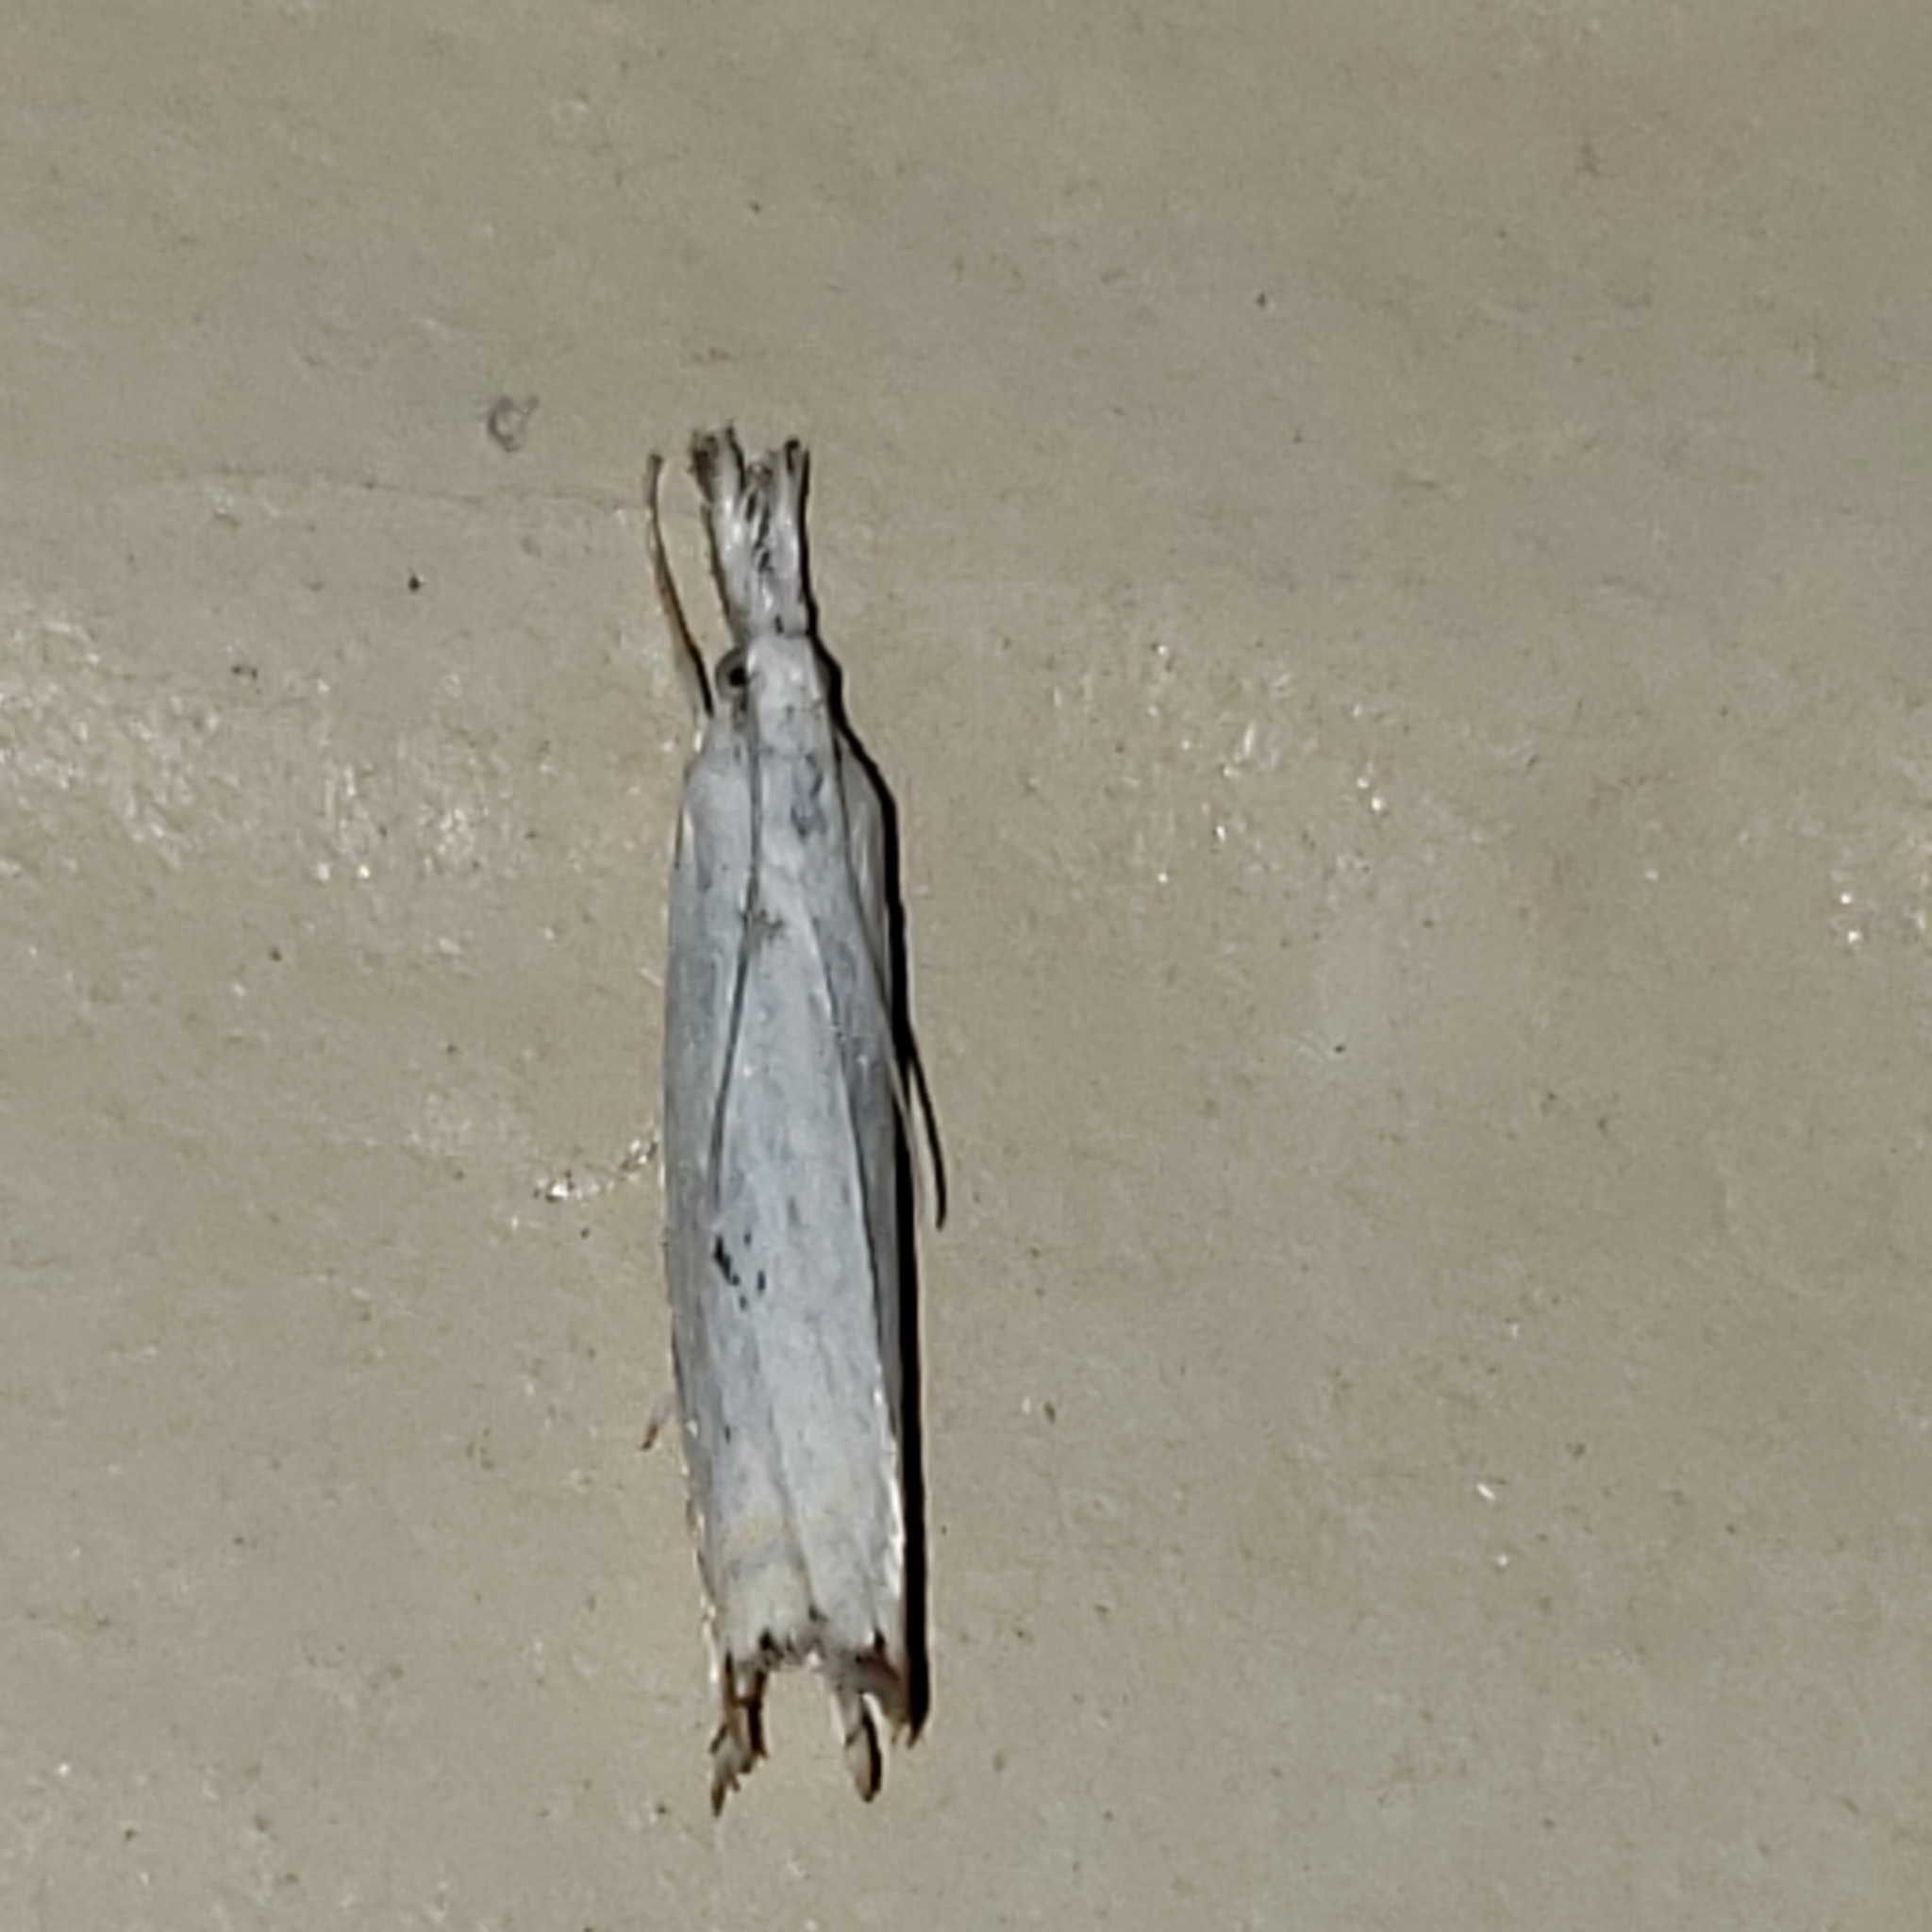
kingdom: Animalia
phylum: Arthropoda
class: Insecta
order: Lepidoptera
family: Crambidae
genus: Crambus
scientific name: Crambus albellus
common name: Small white grass-veneer
